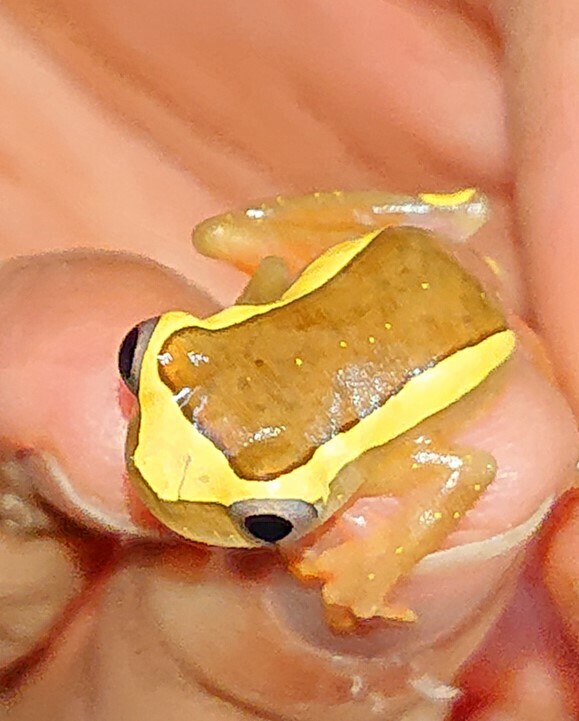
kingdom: Animalia
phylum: Chordata
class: Amphibia
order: Anura
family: Hylidae
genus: Dendropsophus
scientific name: Dendropsophus bifurcus
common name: Two-lined treefrog
